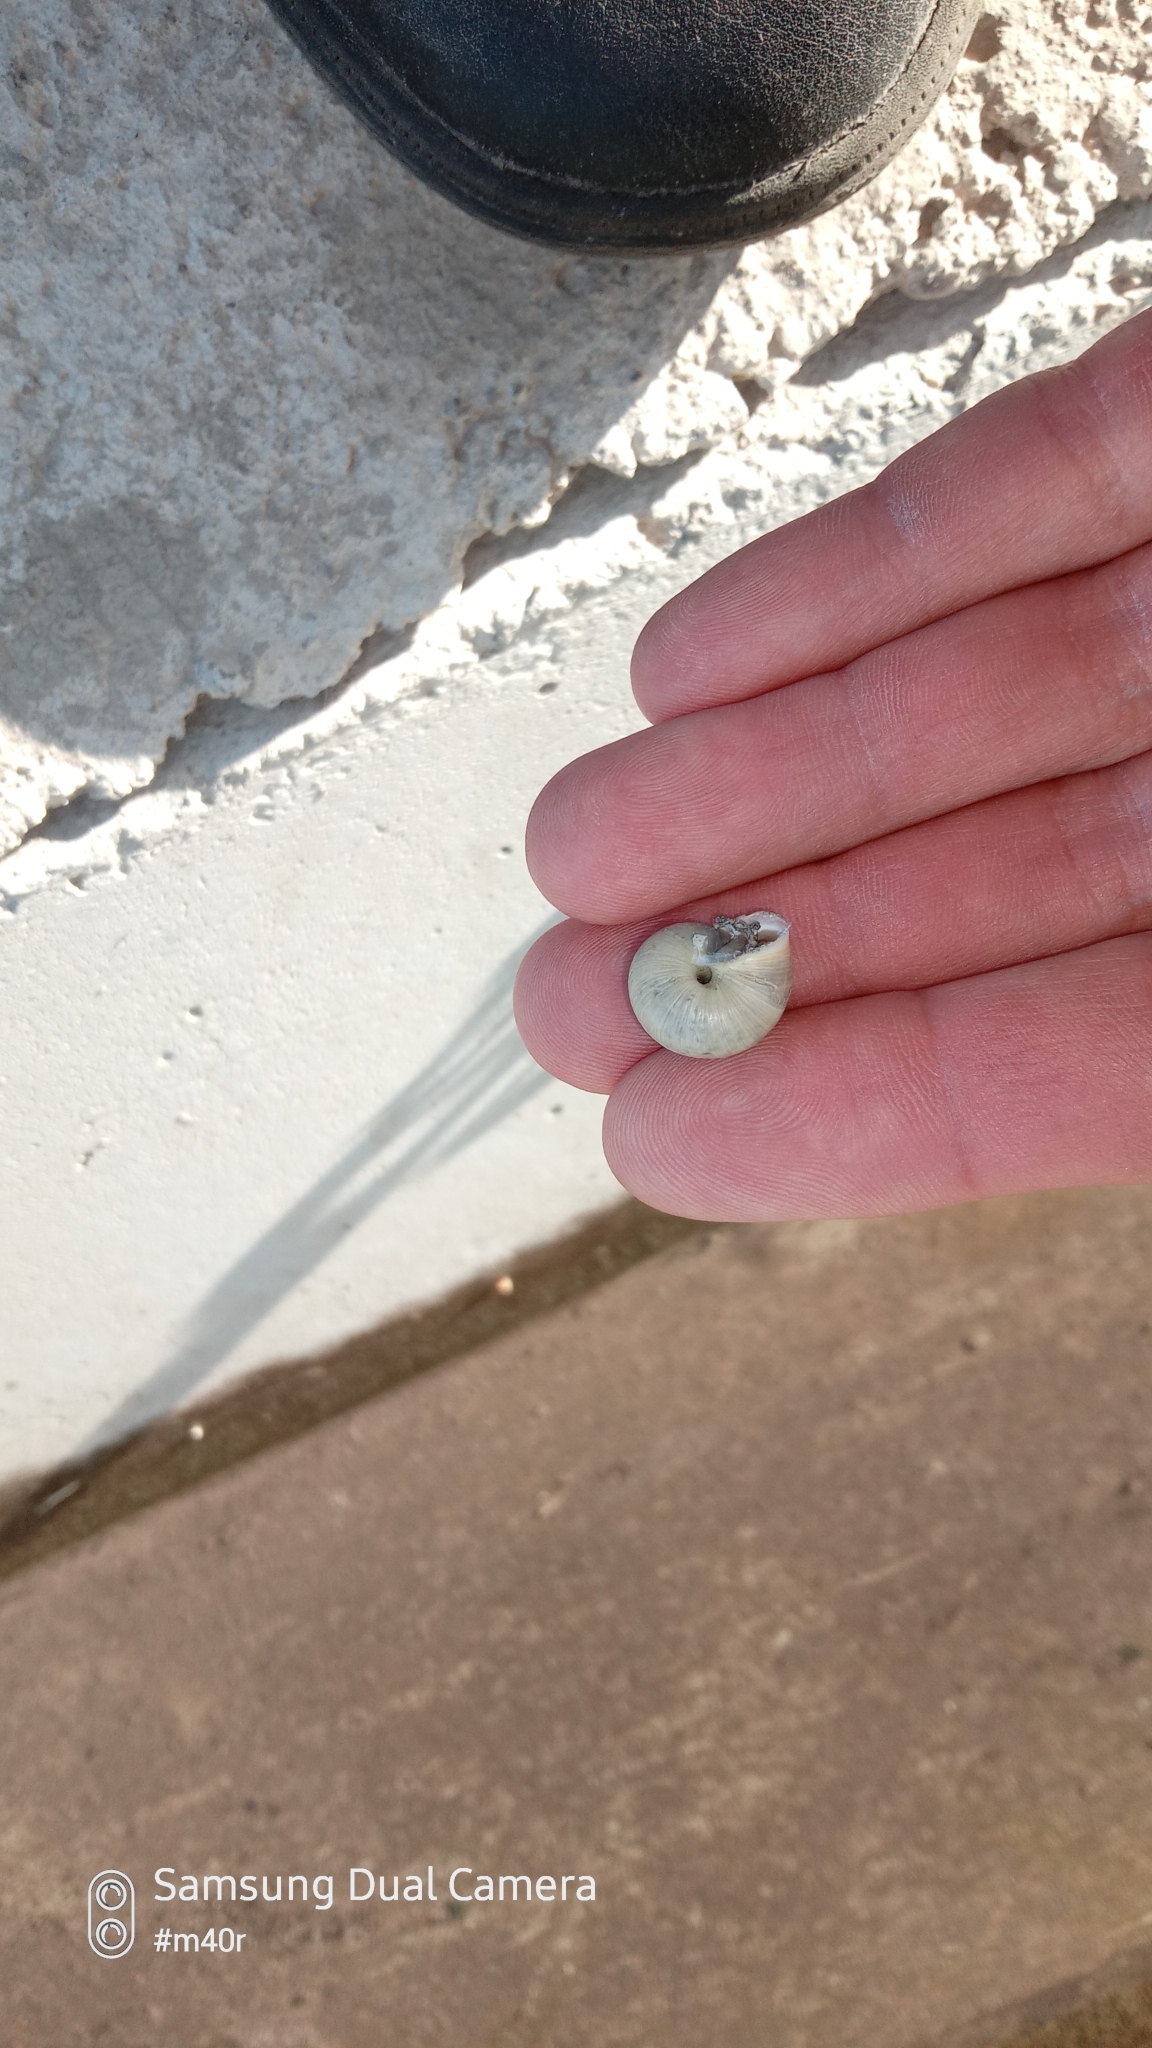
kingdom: Animalia
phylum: Mollusca
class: Gastropoda
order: Stylommatophora
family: Hygromiidae
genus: Harmozica
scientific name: Harmozica ravergiensis
